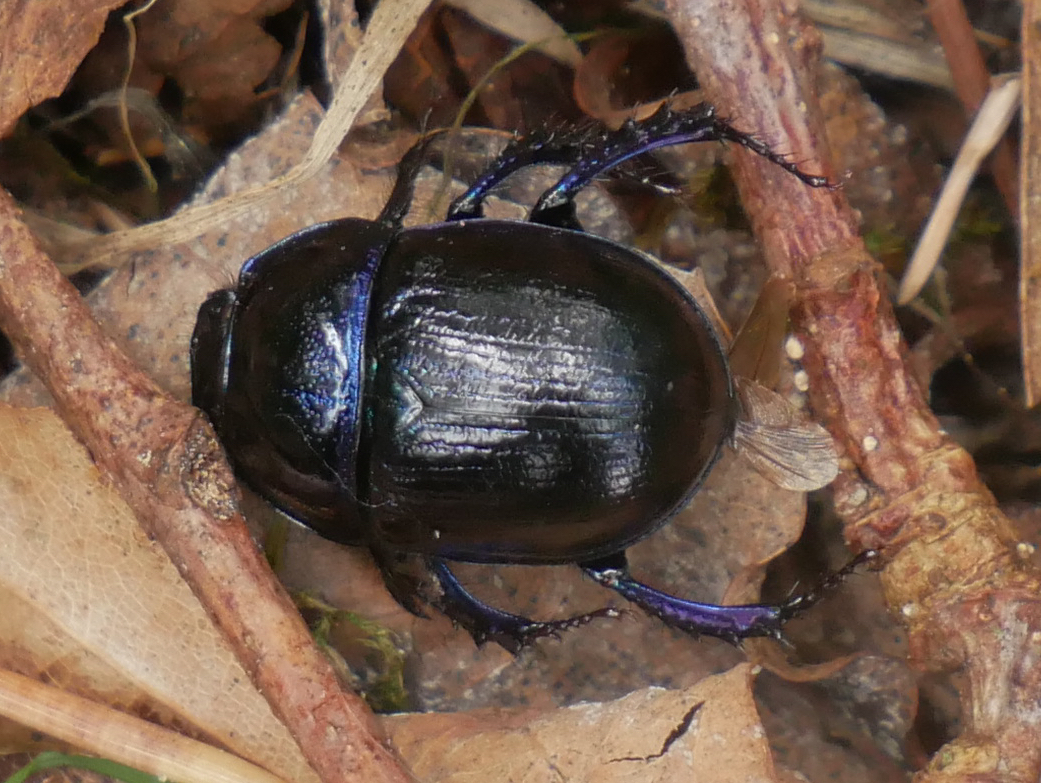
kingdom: Animalia
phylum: Arthropoda
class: Insecta
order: Coleoptera
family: Geotrupidae
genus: Anoplotrupes
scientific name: Anoplotrupes stercorosus
